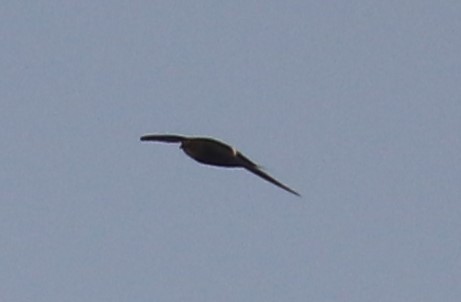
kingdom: Animalia
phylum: Chordata
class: Aves
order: Apodiformes
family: Apodidae
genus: Apus
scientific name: Apus caffer
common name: White-rumped swift
